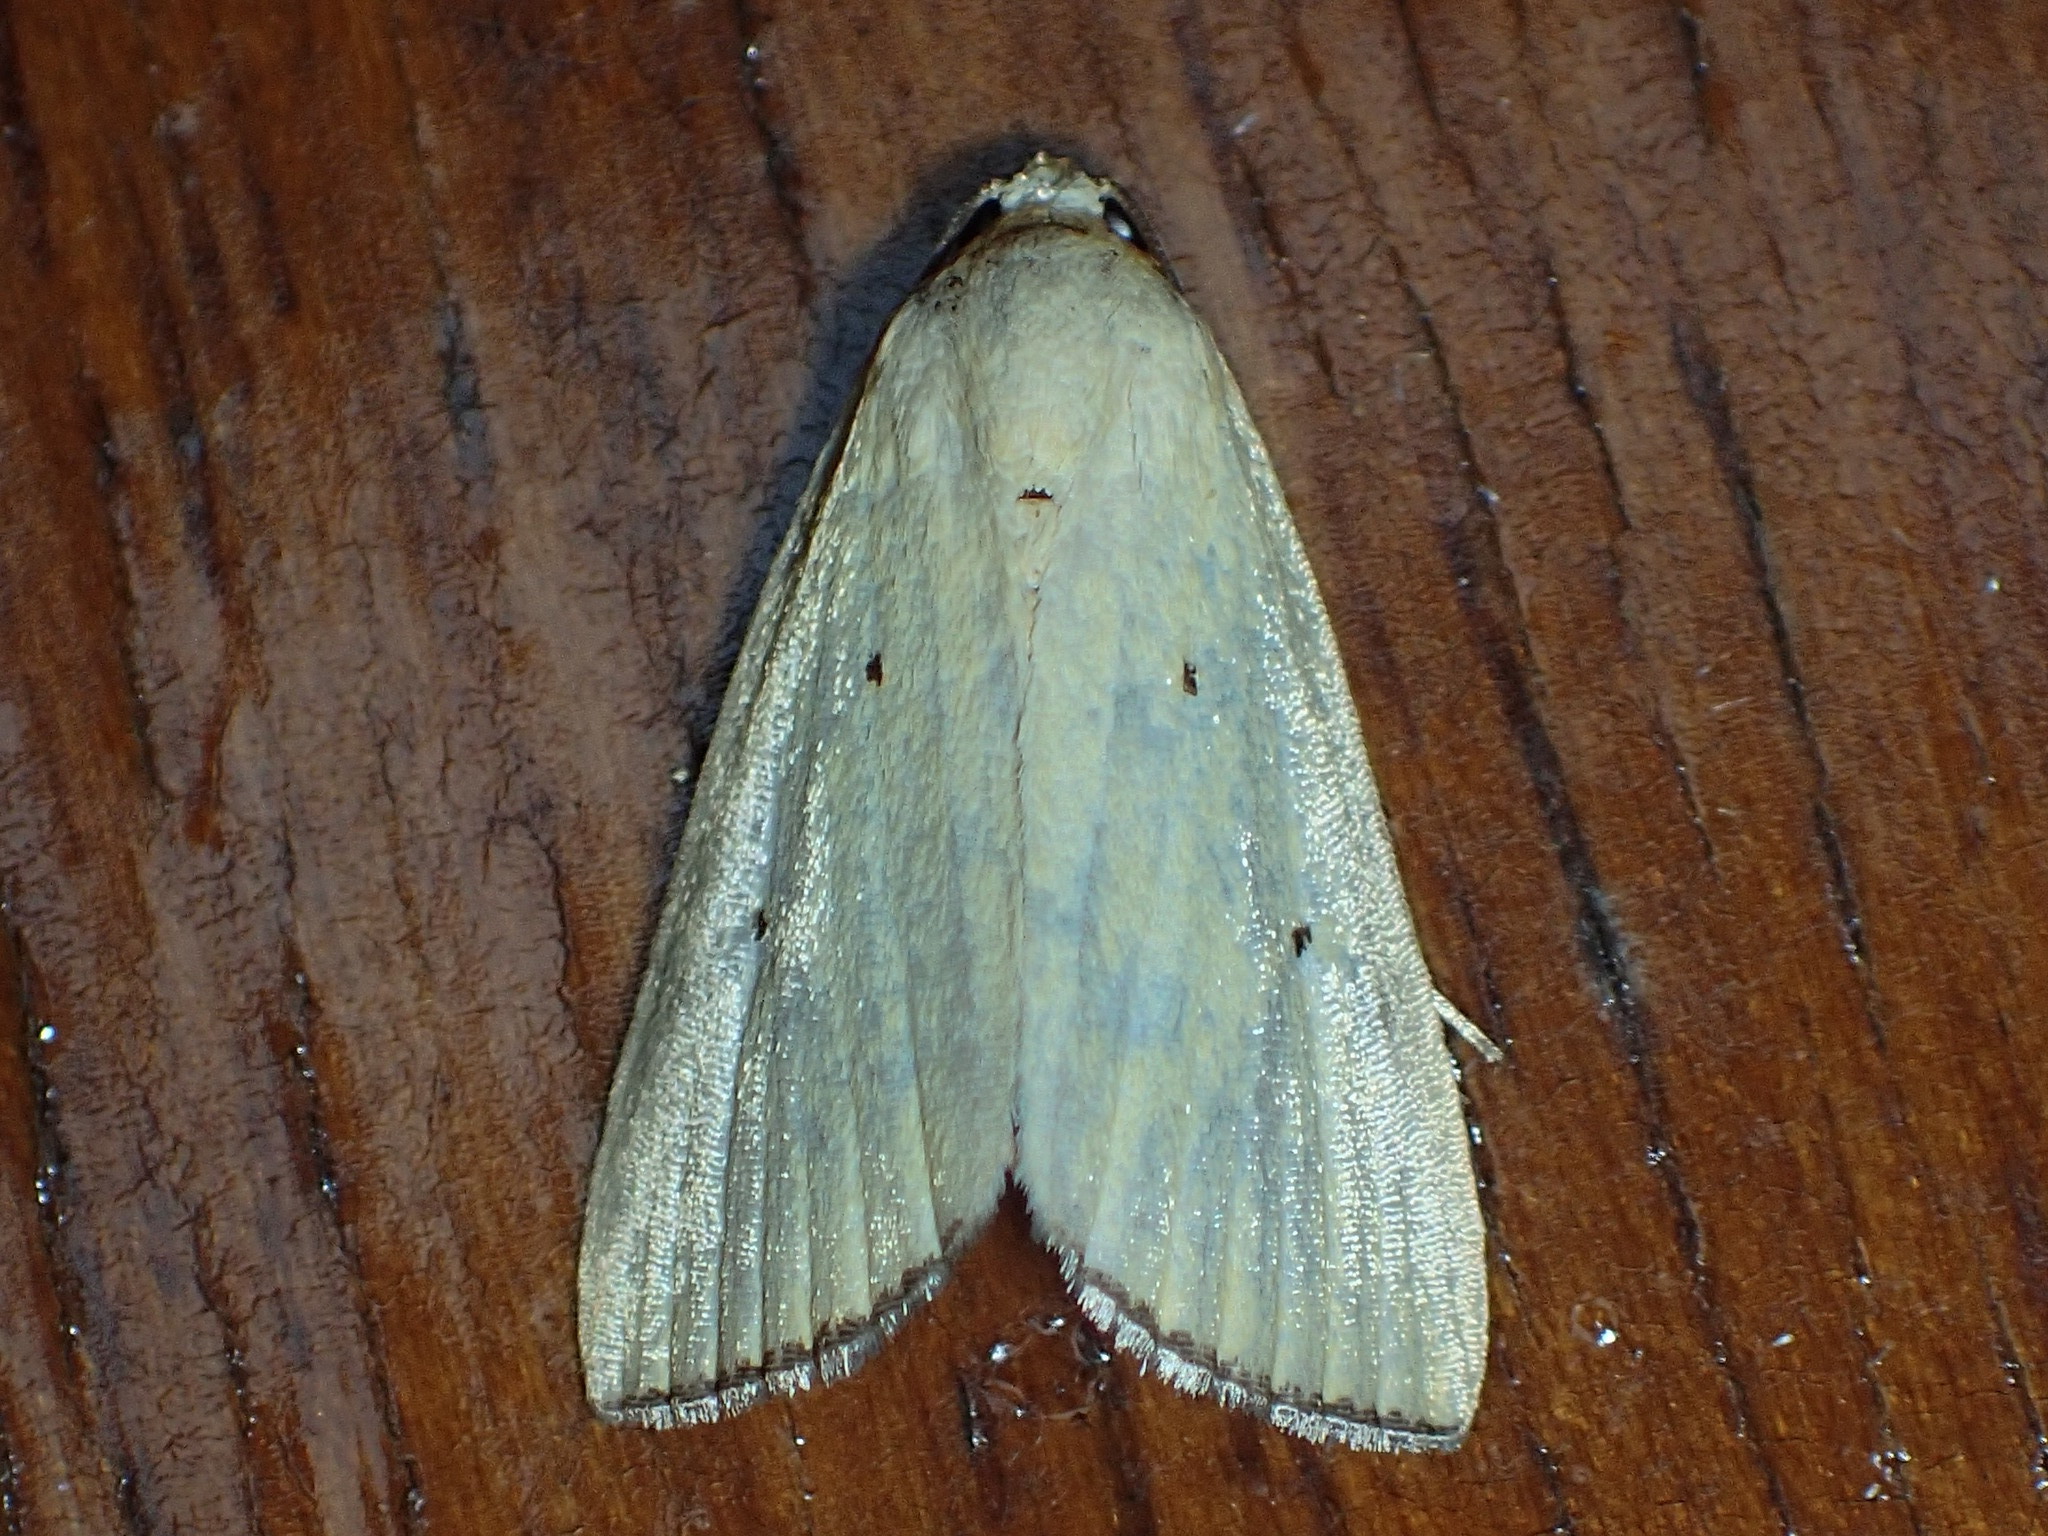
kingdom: Animalia
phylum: Arthropoda
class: Insecta
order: Lepidoptera
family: Noctuidae
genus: Marimatha
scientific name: Marimatha nigrofimbria
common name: Black-bordered lemon moth
